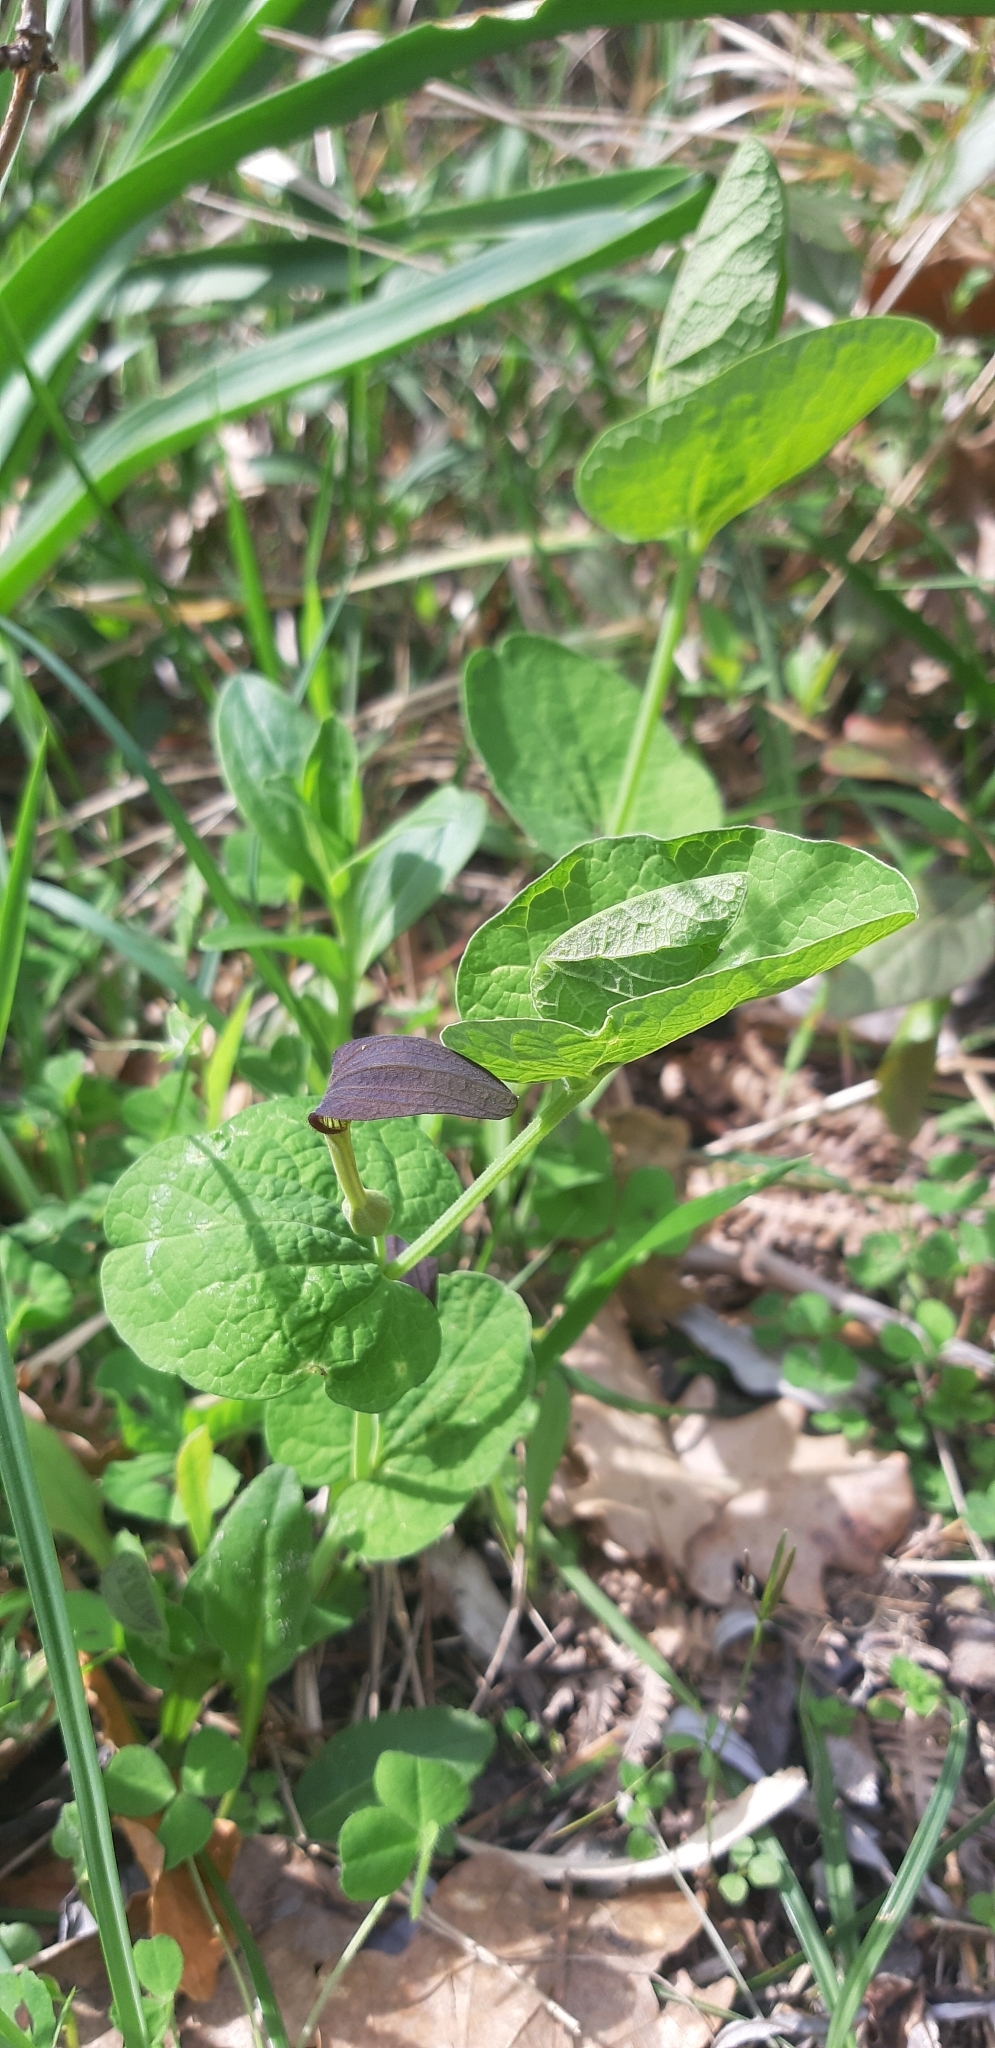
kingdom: Plantae
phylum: Tracheophyta
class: Magnoliopsida
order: Piperales
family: Aristolochiaceae
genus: Aristolochia
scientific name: Aristolochia rotunda
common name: Smearwort
